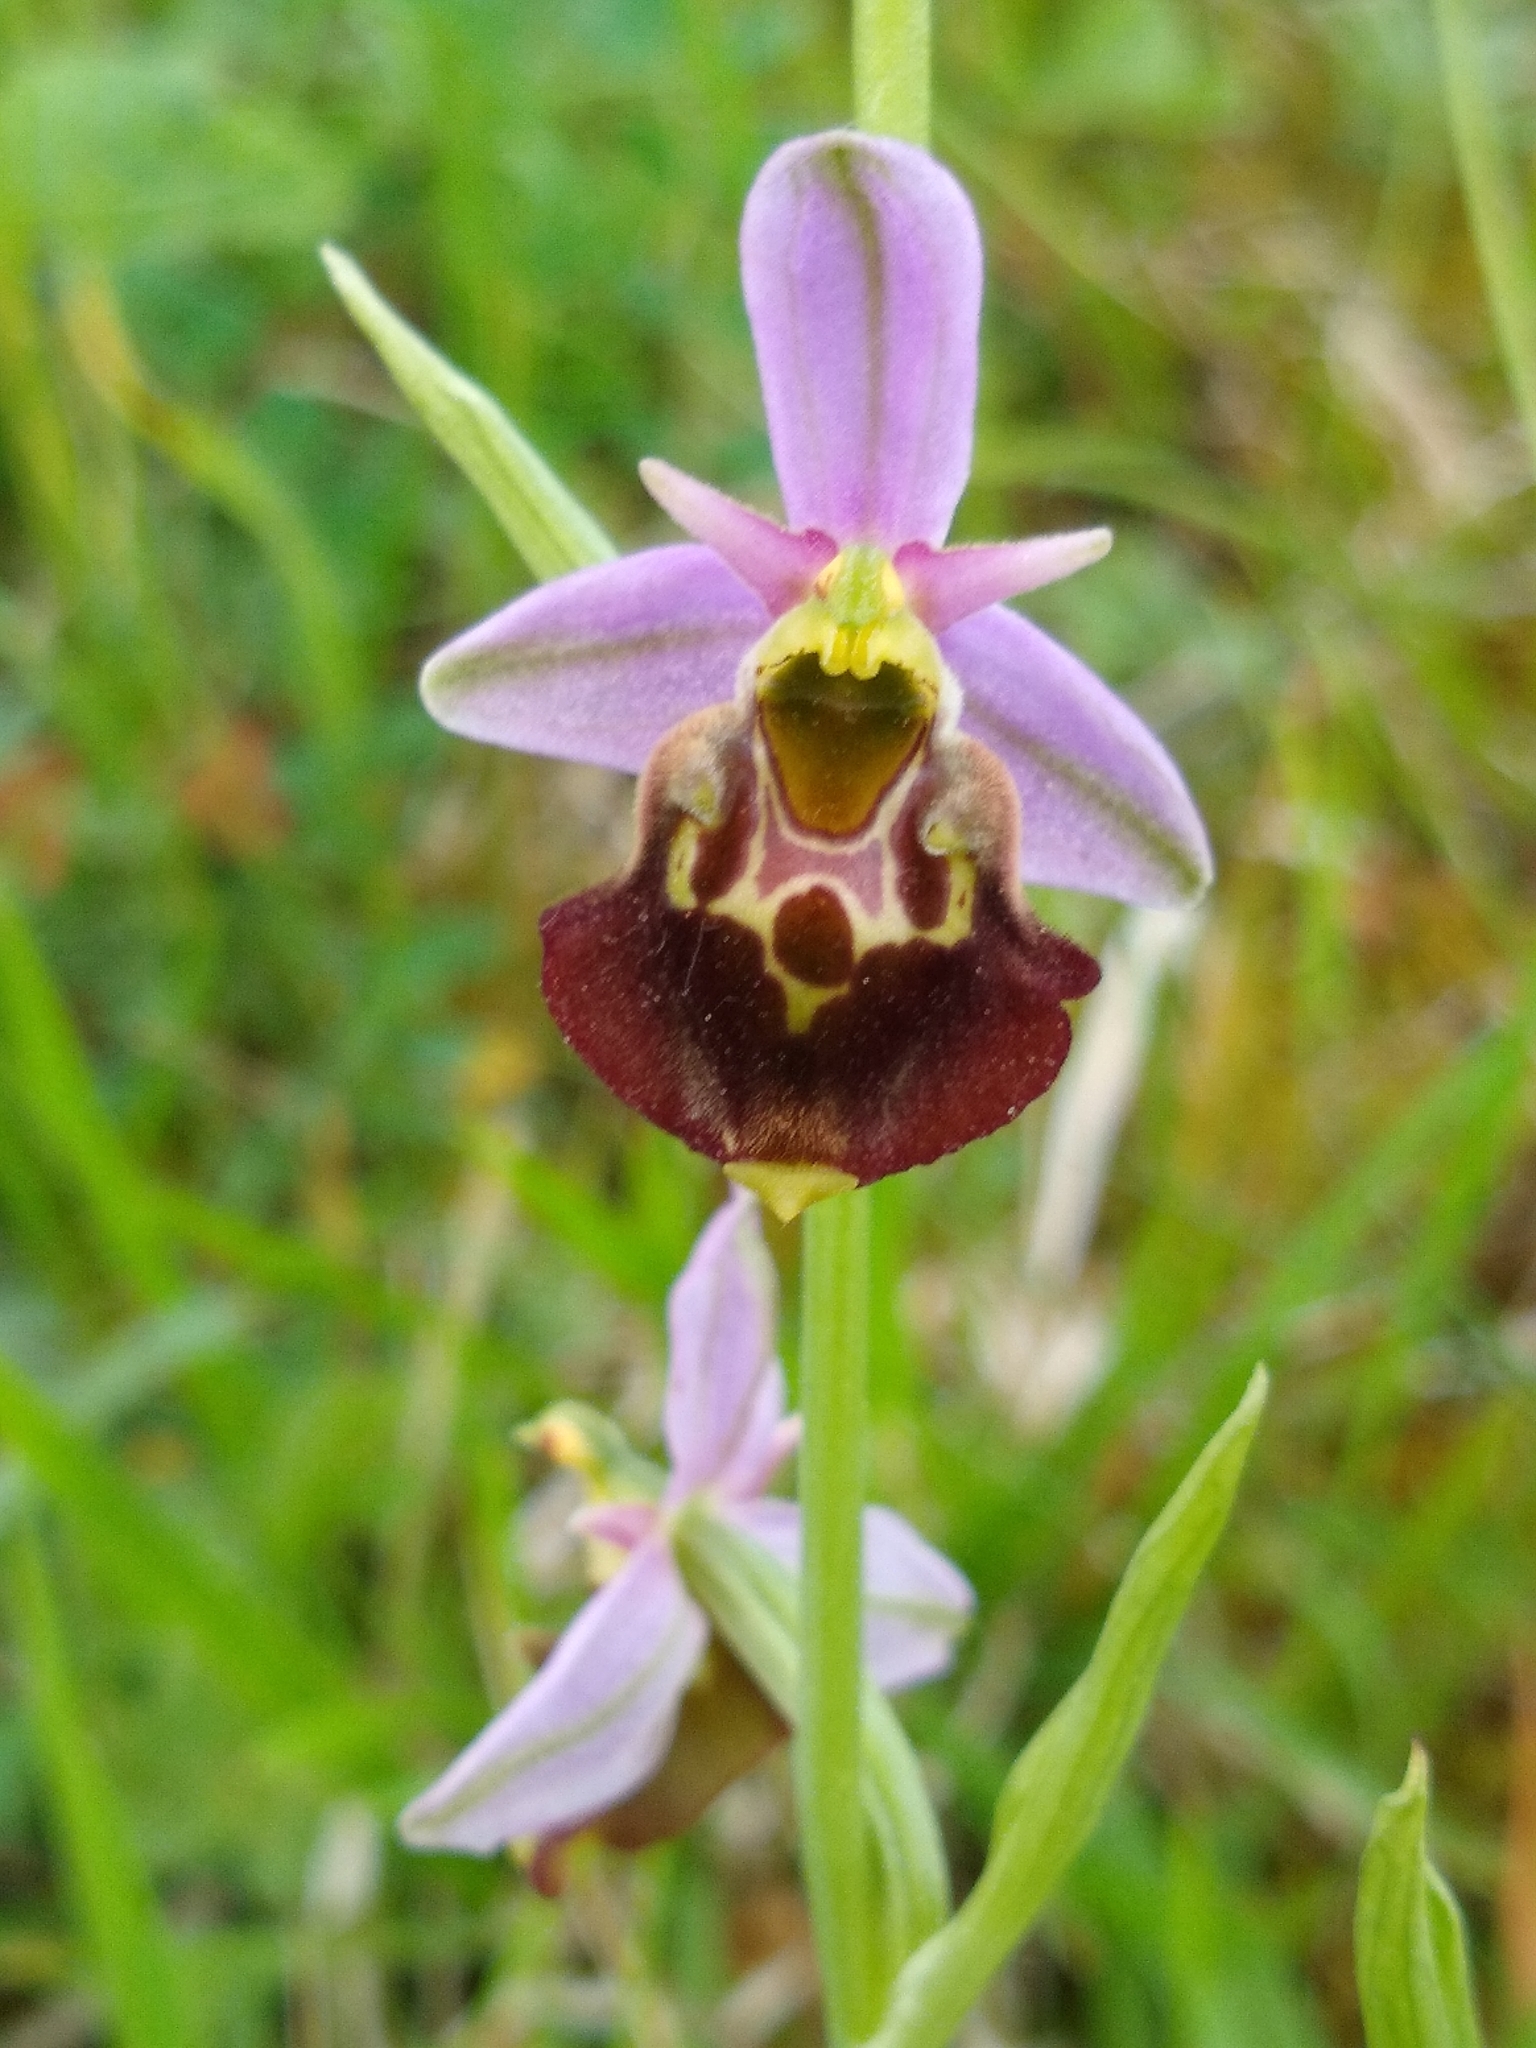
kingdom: Plantae
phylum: Tracheophyta
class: Liliopsida
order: Asparagales
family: Orchidaceae
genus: Ophrys
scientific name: Ophrys holosericea
